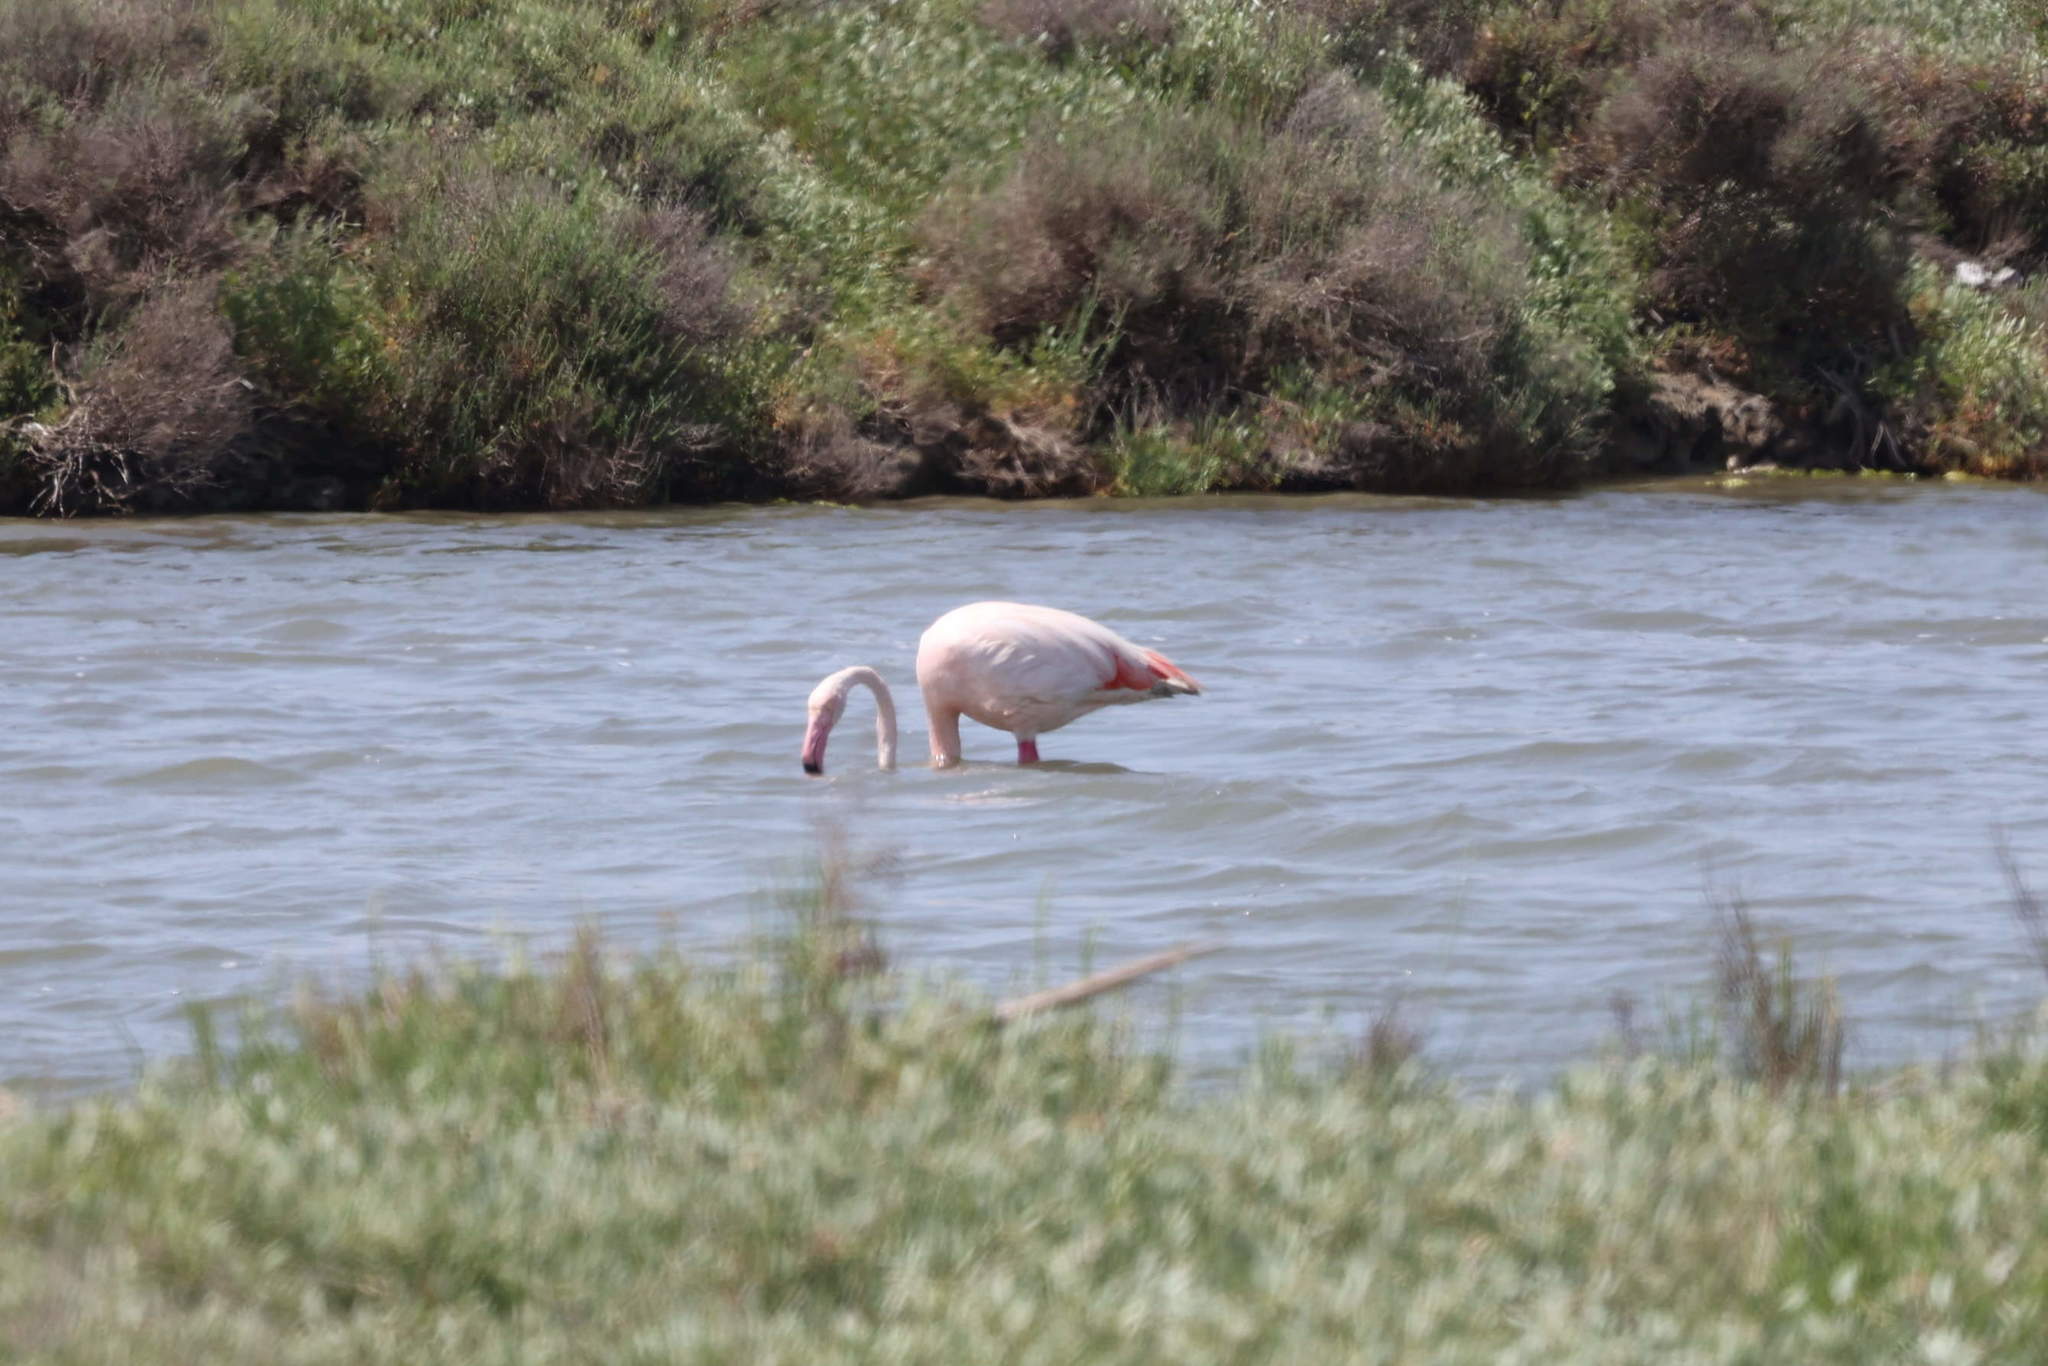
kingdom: Animalia
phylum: Chordata
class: Aves
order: Phoenicopteriformes
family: Phoenicopteridae
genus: Phoenicopterus
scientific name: Phoenicopterus roseus
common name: Greater flamingo
